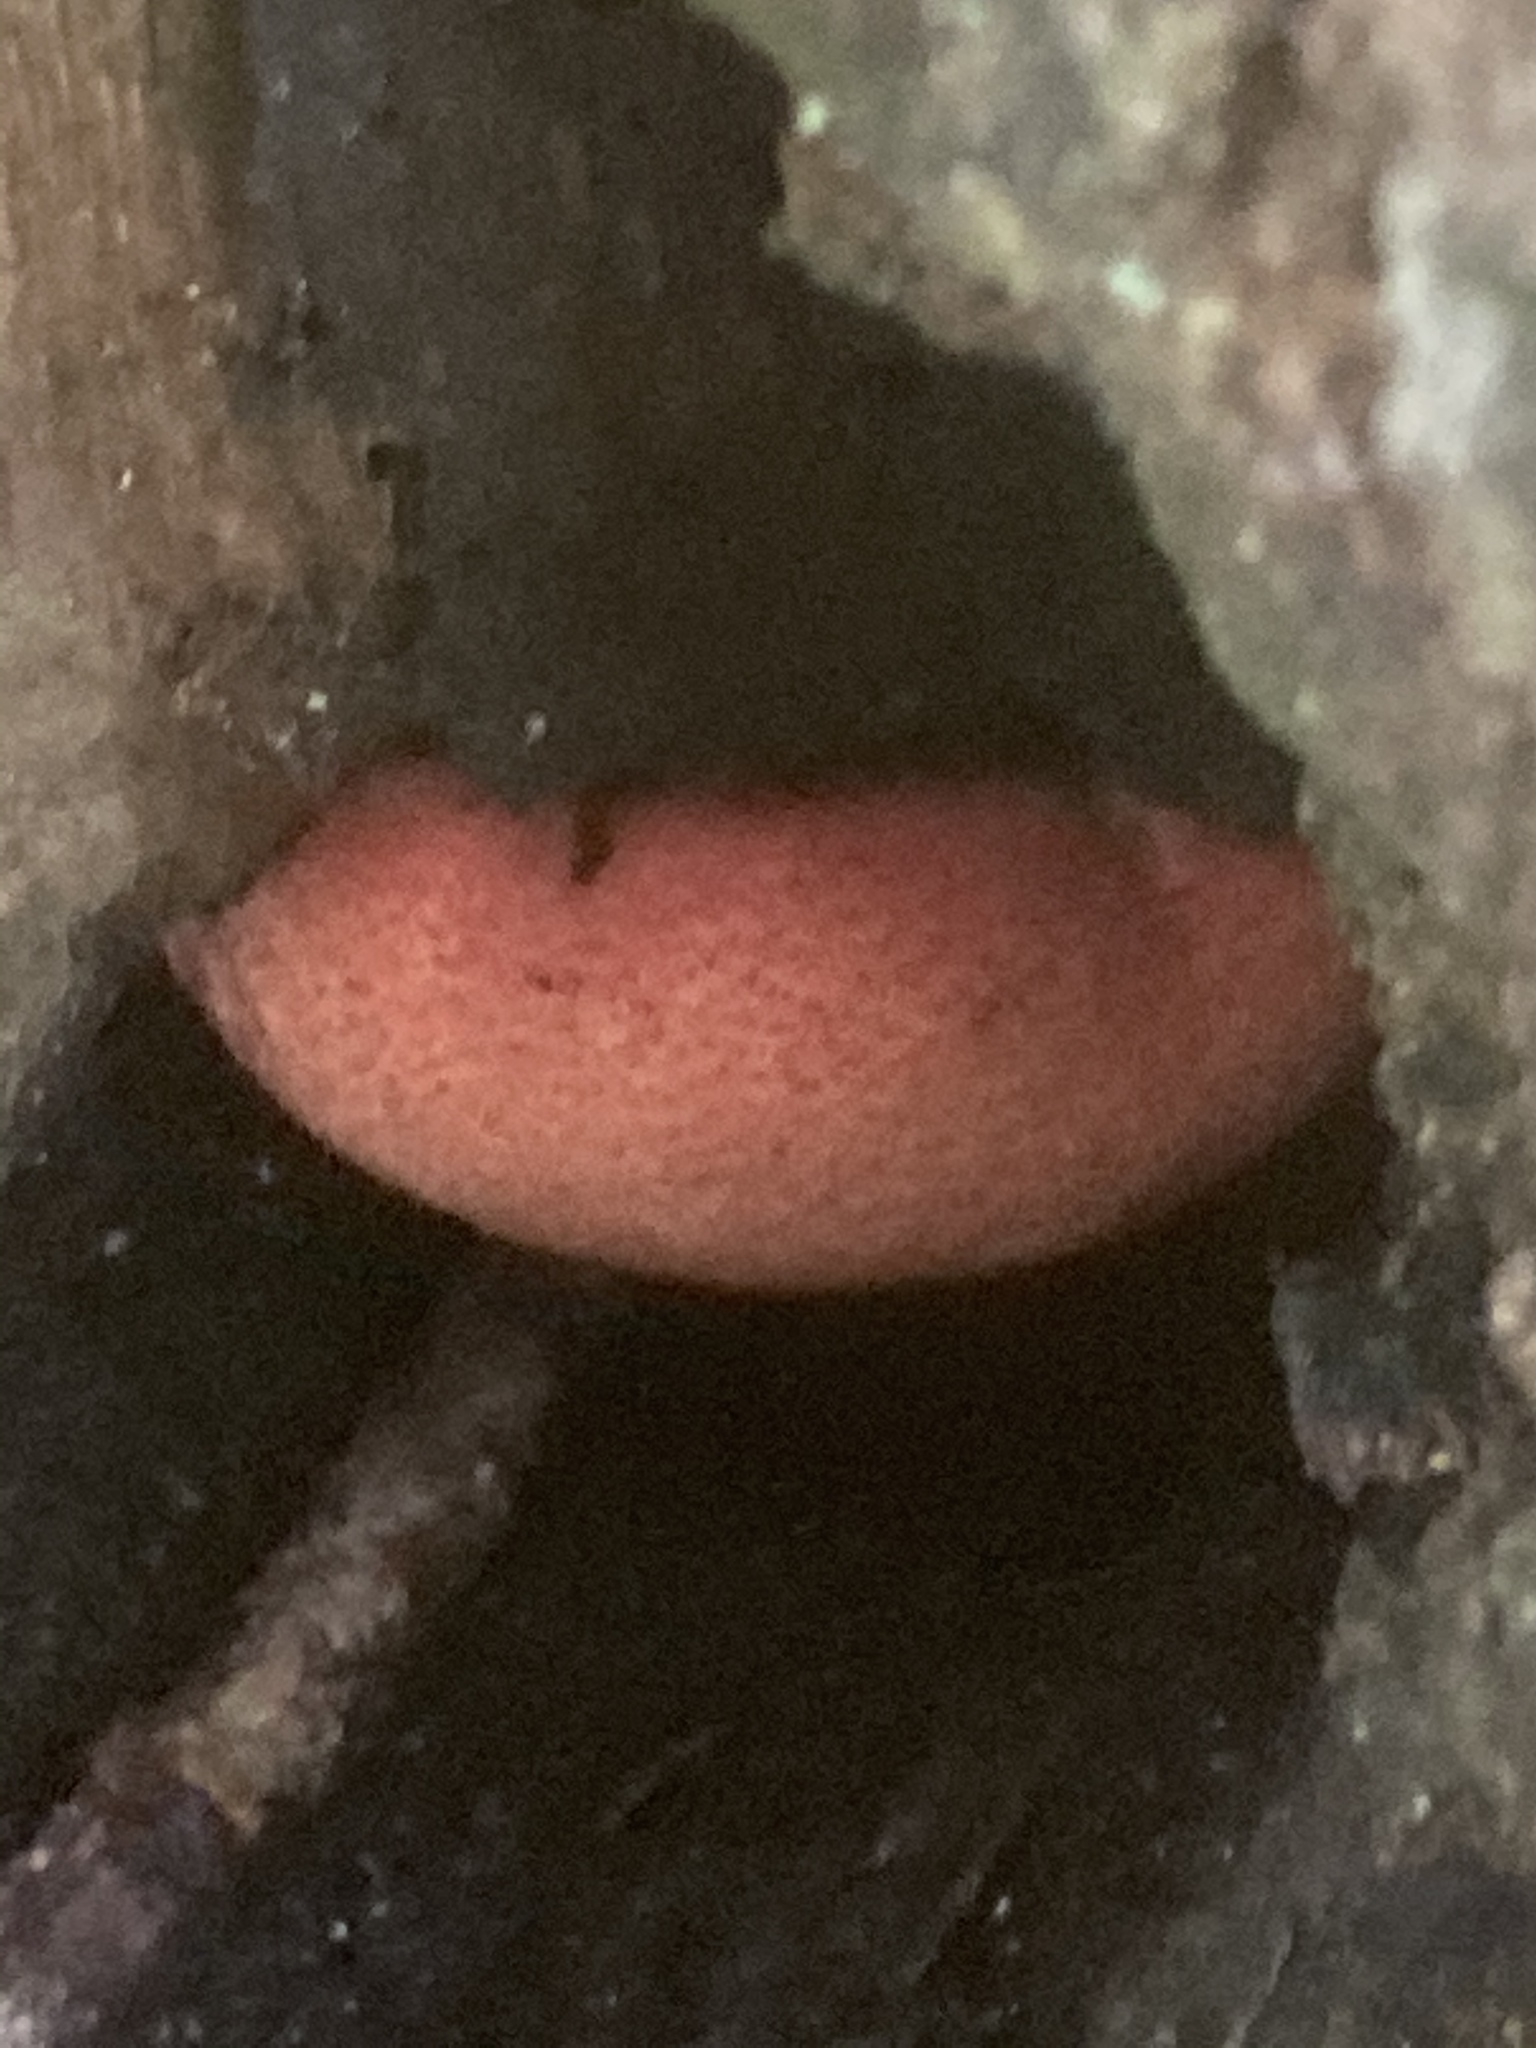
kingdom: Fungi
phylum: Basidiomycota
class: Agaricomycetes
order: Agaricales
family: Fistulinaceae
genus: Fistulina
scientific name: Fistulina hepatica
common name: Beef-steak fungus
